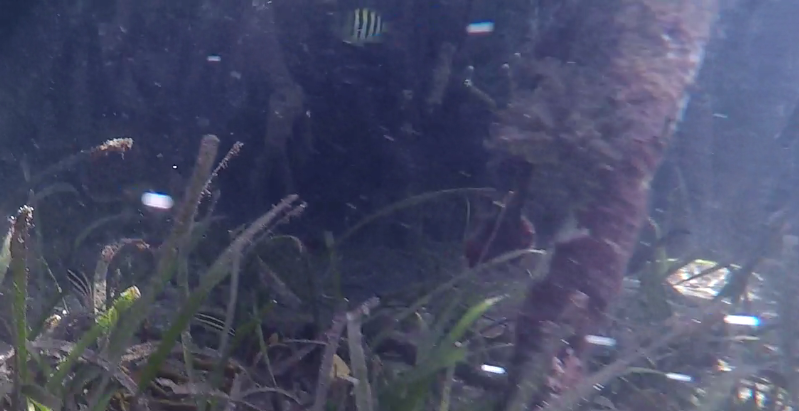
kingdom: Animalia
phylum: Chordata
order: Perciformes
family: Pomacentridae
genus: Abudefduf
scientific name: Abudefduf saxatilis
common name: Sergeant major
